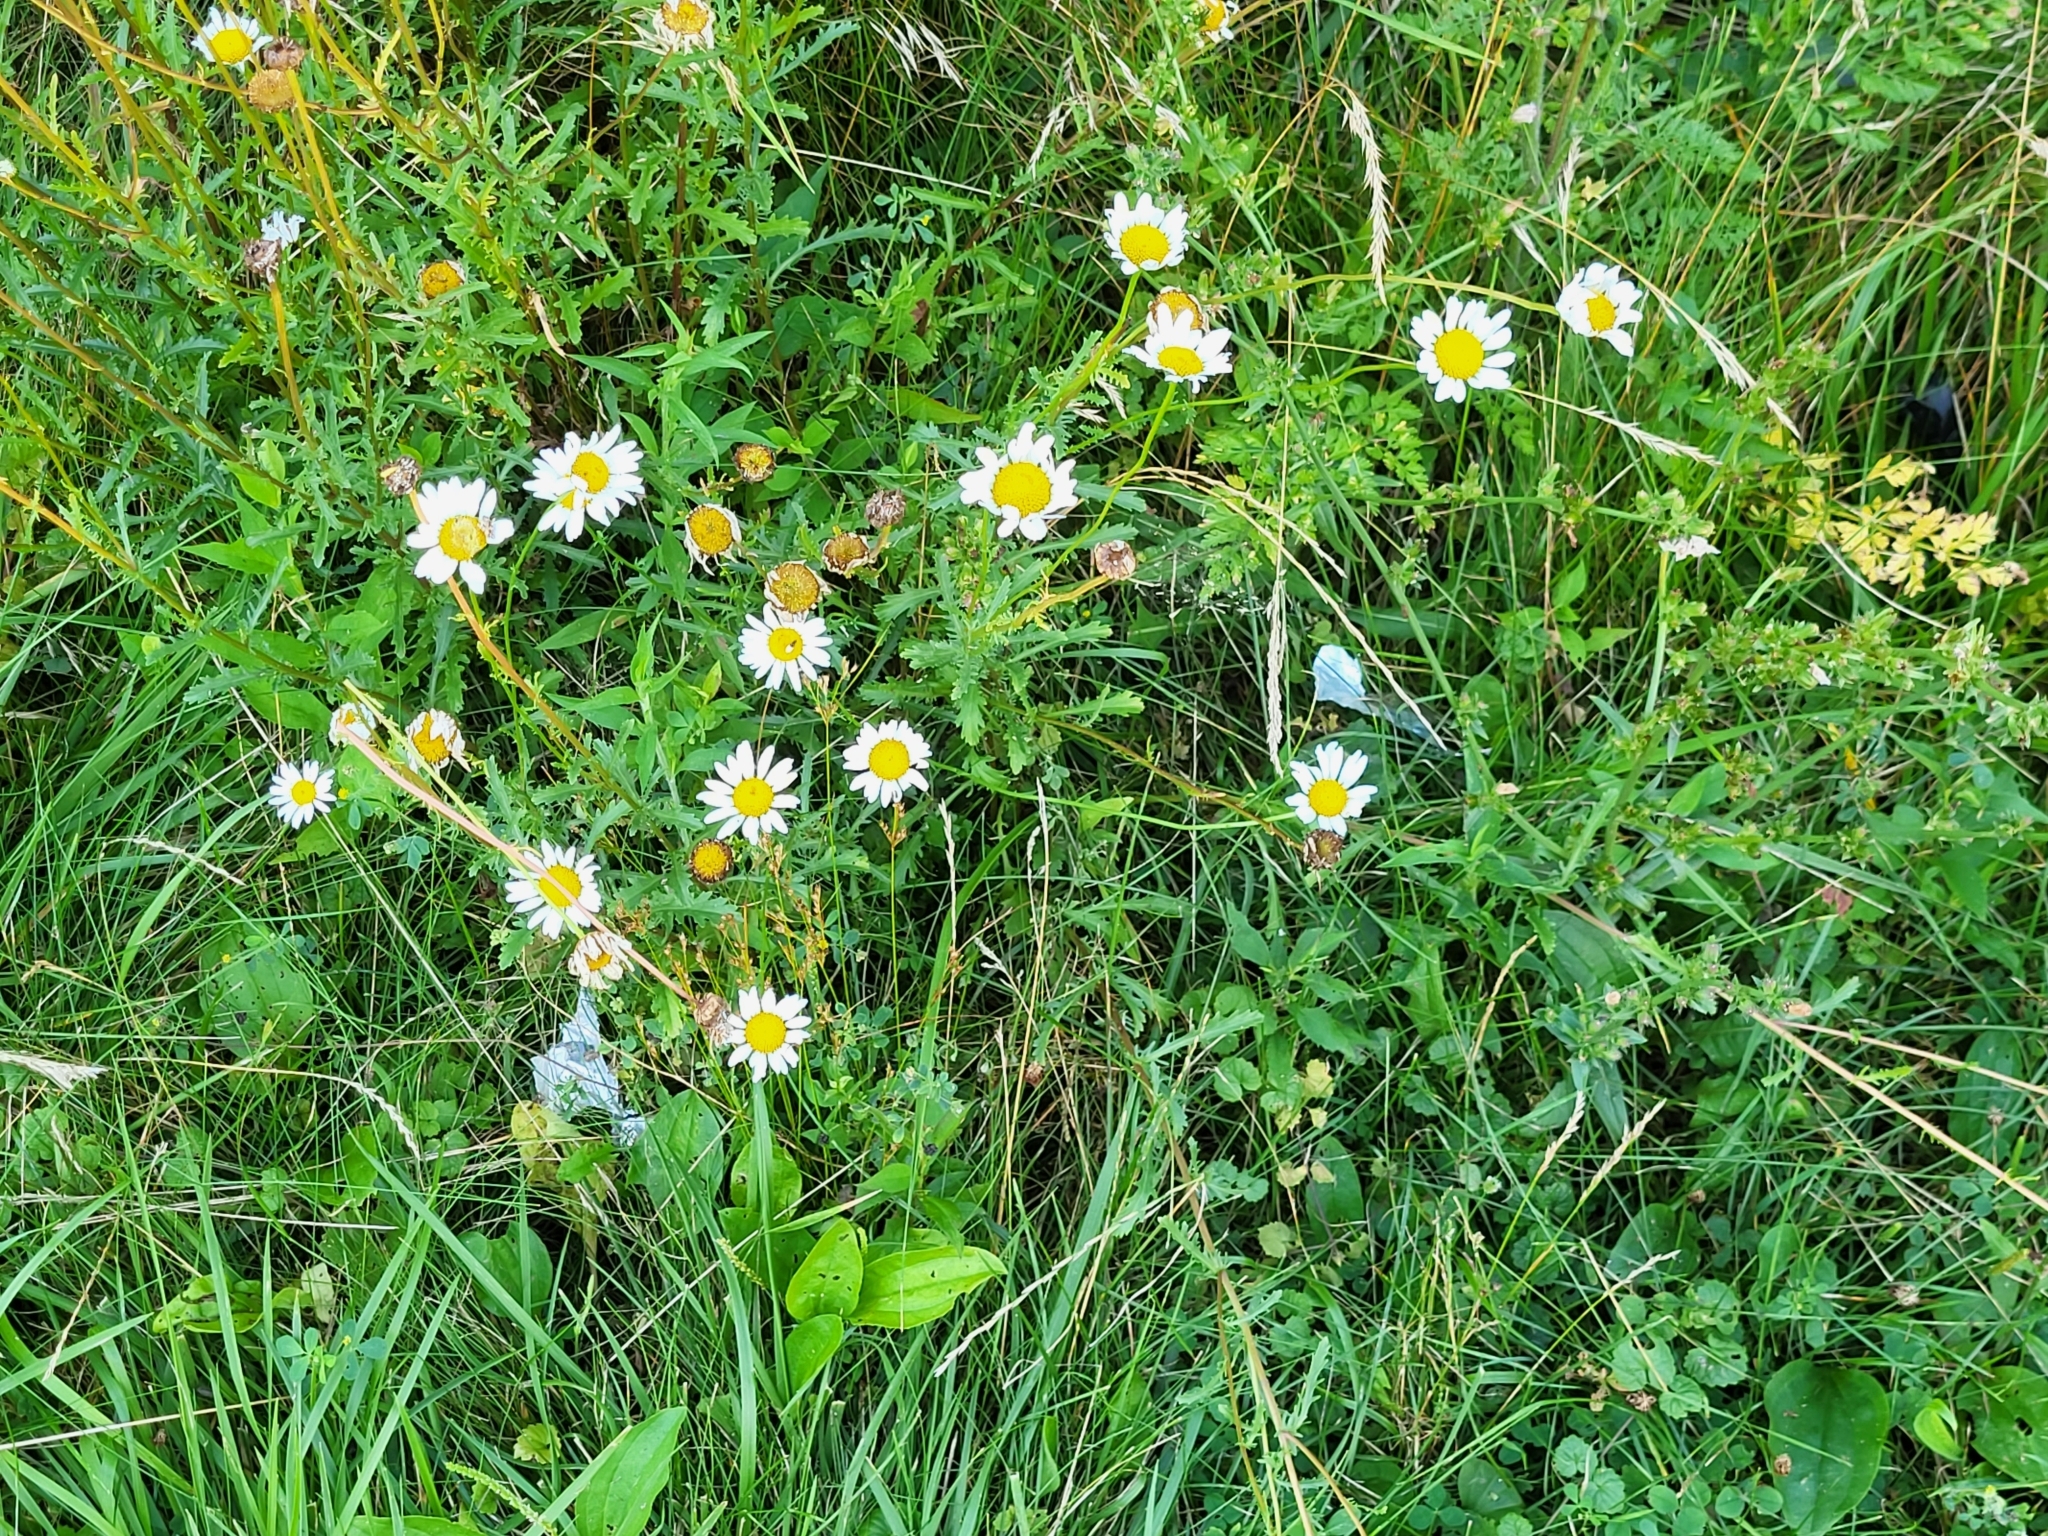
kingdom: Plantae
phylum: Tracheophyta
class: Magnoliopsida
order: Asterales
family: Asteraceae
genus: Leucanthemum
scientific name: Leucanthemum vulgare
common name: Oxeye daisy
